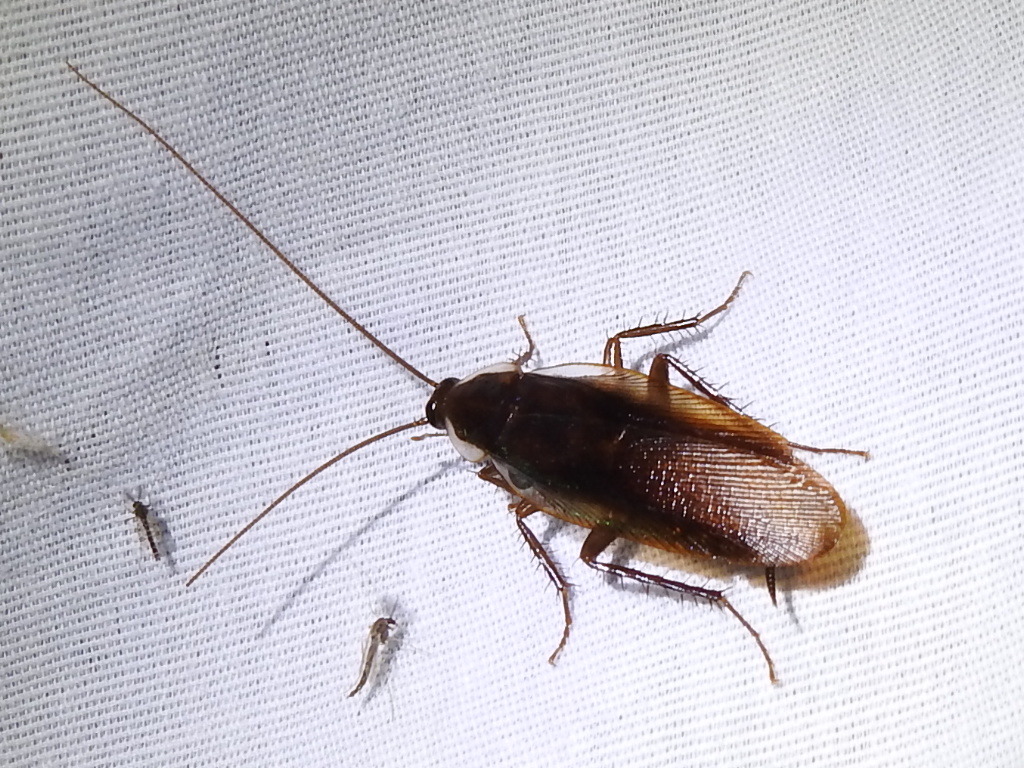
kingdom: Animalia
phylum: Arthropoda
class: Insecta
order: Blattodea
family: Ectobiidae
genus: Parcoblatta
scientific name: Parcoblatta pennsylvanica
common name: Pennsylvanian wood cockroach
